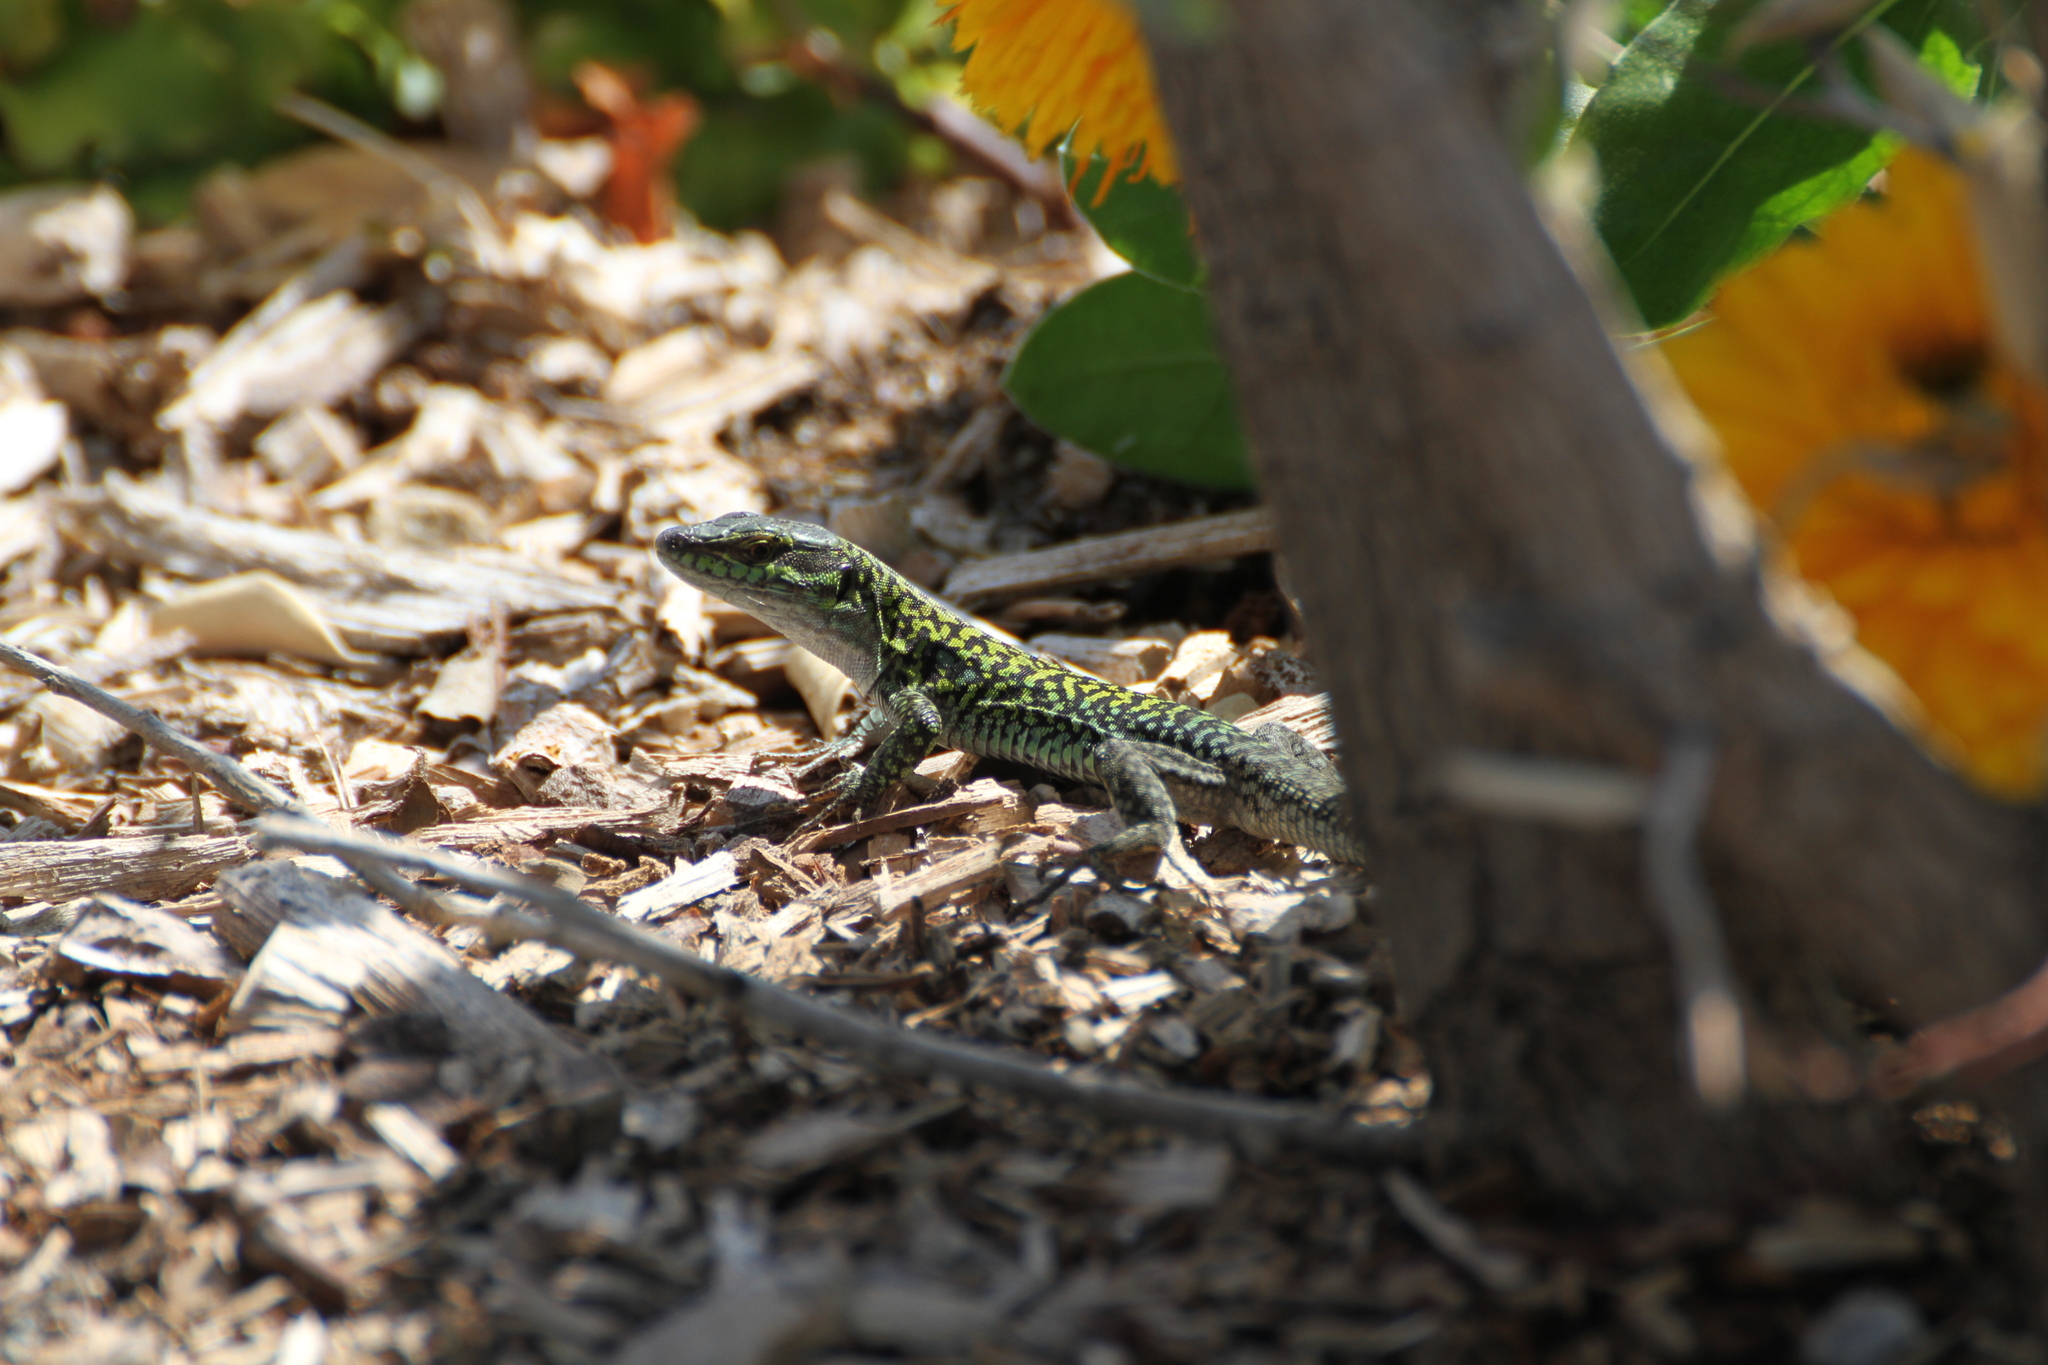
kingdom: Animalia
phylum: Chordata
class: Squamata
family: Lacertidae
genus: Podarcis
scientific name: Podarcis siculus
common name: Italian wall lizard
